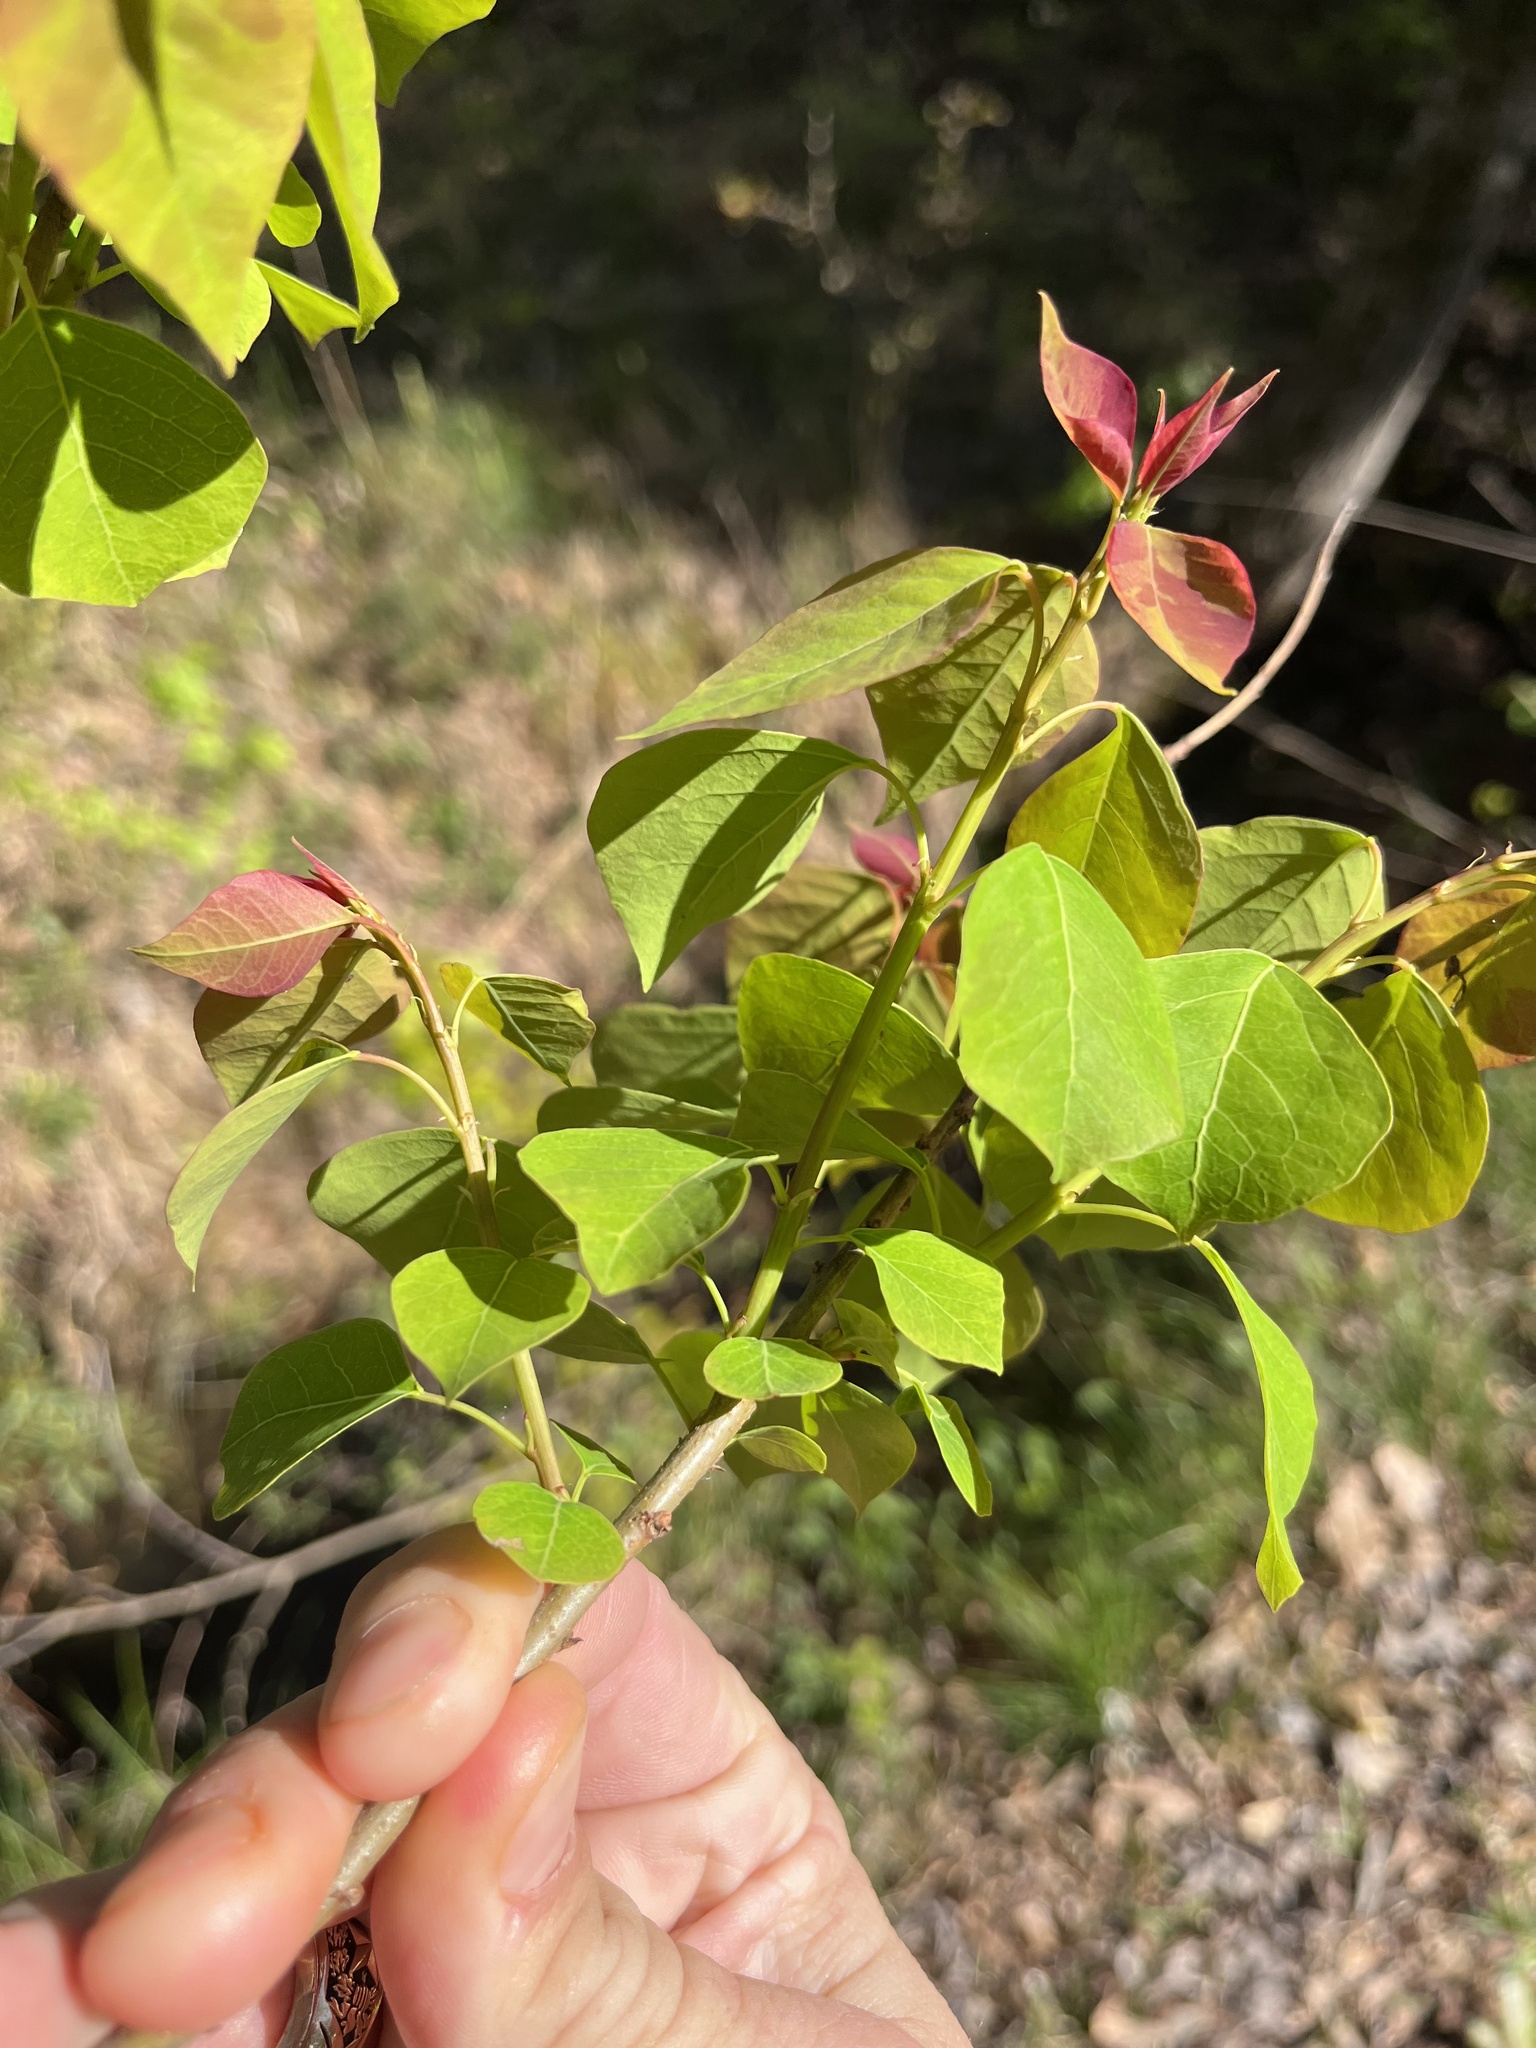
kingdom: Plantae
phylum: Tracheophyta
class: Magnoliopsida
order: Malpighiales
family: Euphorbiaceae
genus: Triadica
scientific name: Triadica sebifera
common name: Chinese tallow
